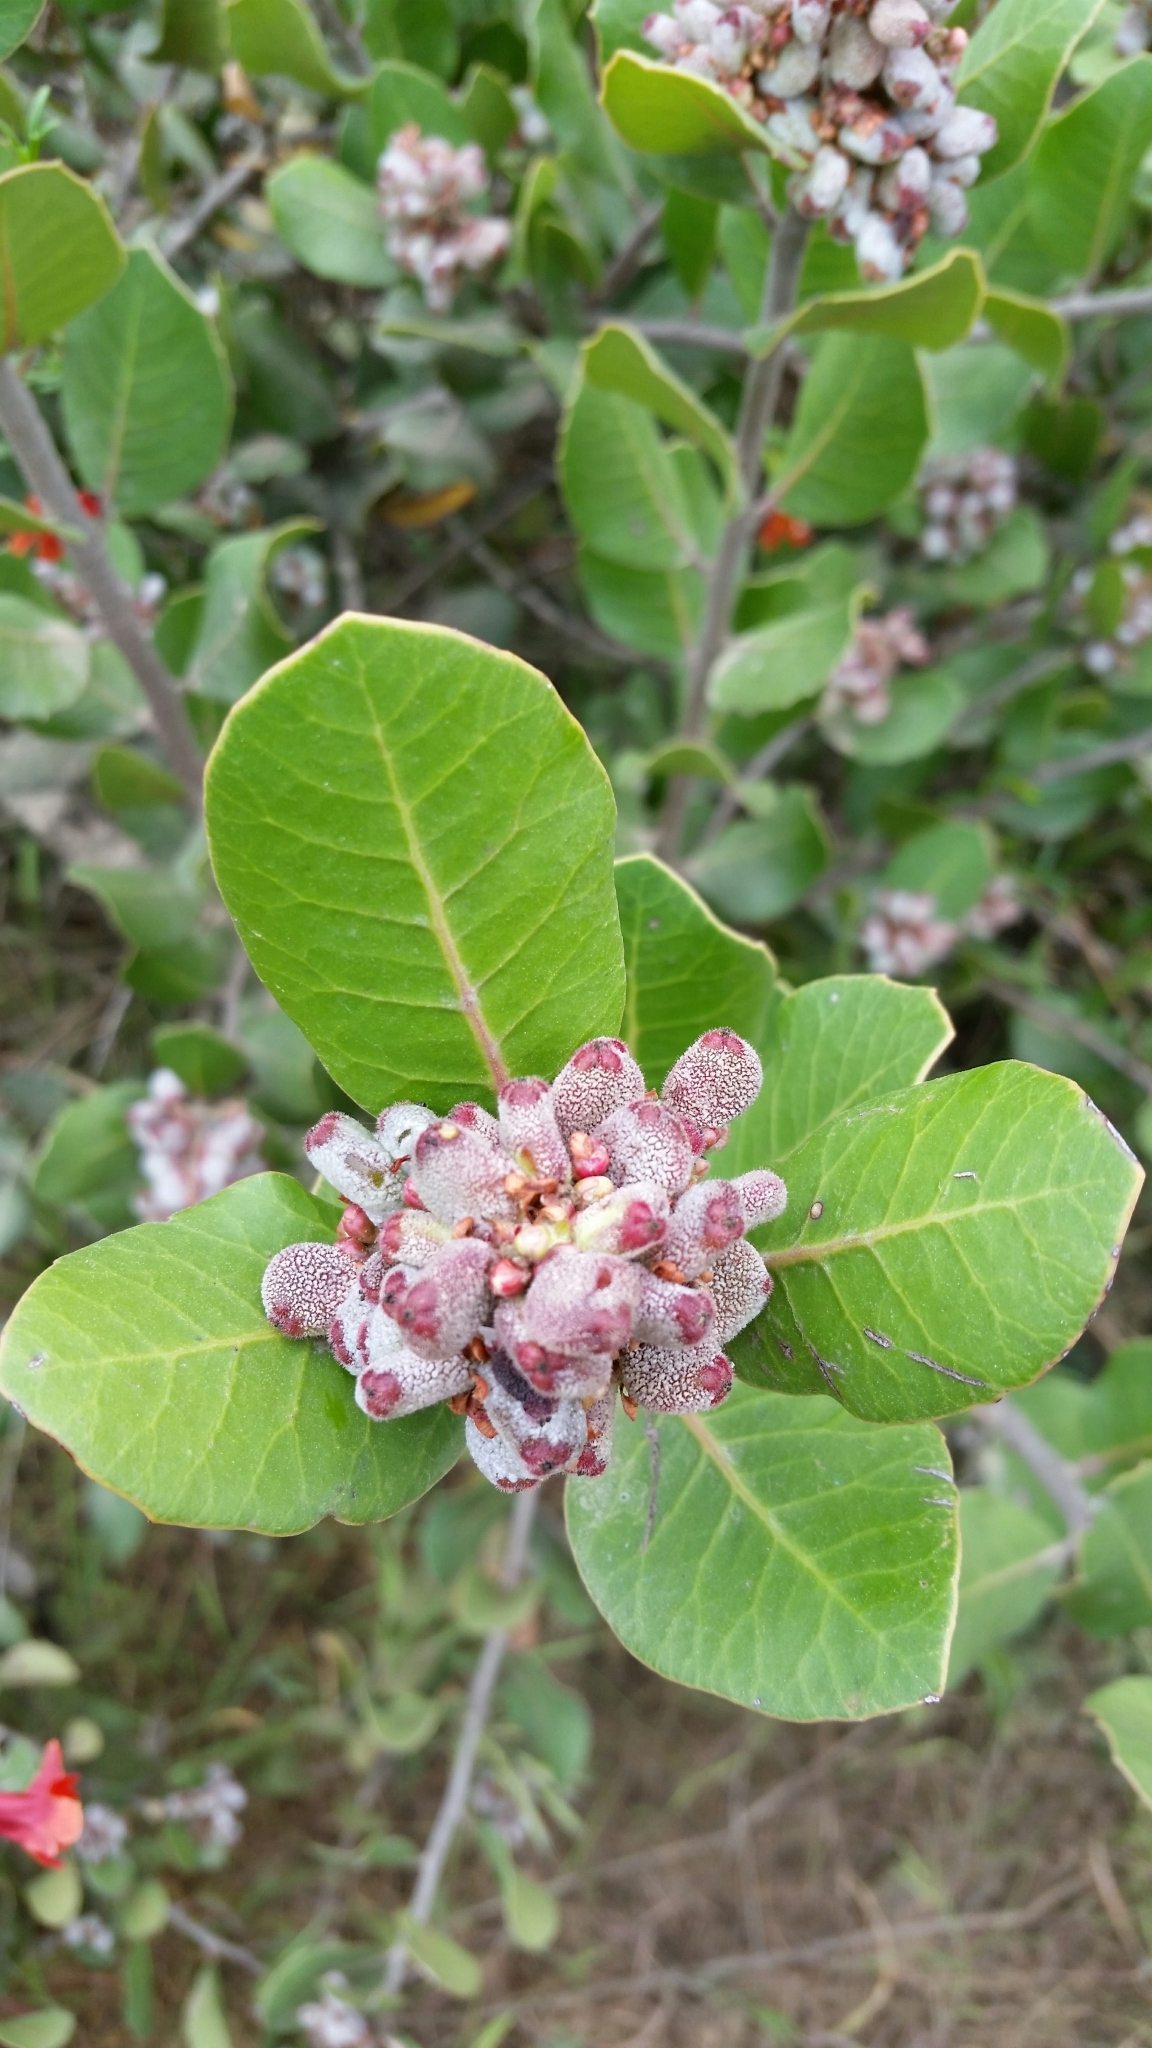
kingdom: Plantae
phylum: Tracheophyta
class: Magnoliopsida
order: Sapindales
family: Anacardiaceae
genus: Rhus
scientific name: Rhus integrifolia
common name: Lemonade sumac
